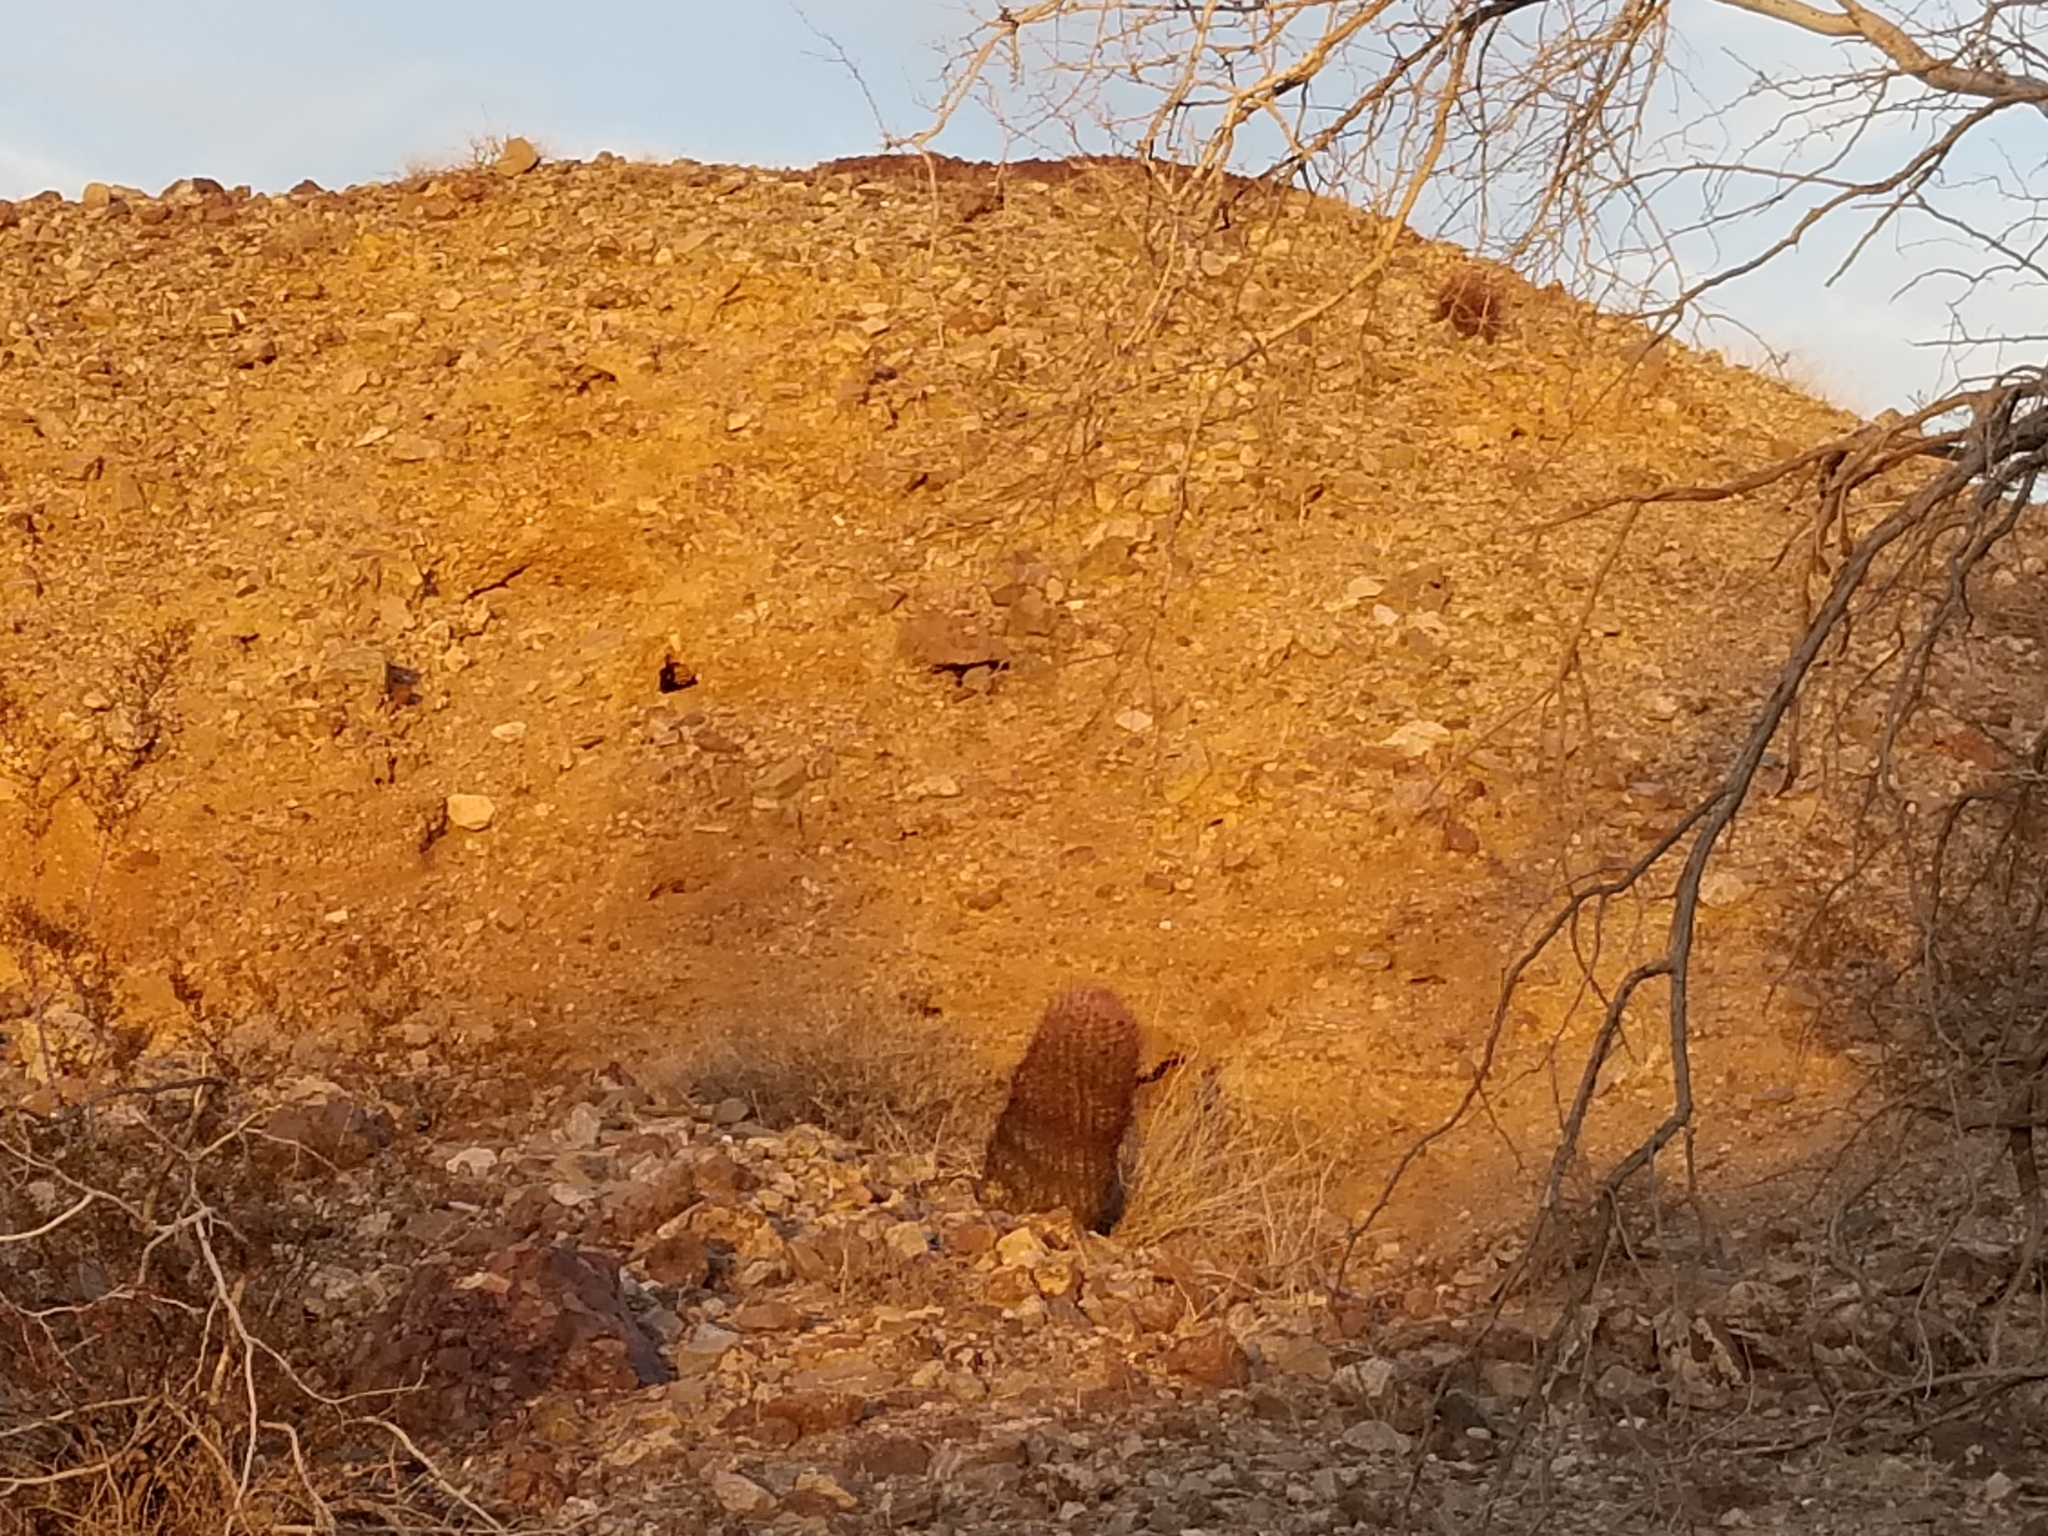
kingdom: Plantae
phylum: Tracheophyta
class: Magnoliopsida
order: Caryophyllales
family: Cactaceae
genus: Ferocactus
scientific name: Ferocactus cylindraceus
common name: California barrel cactus
